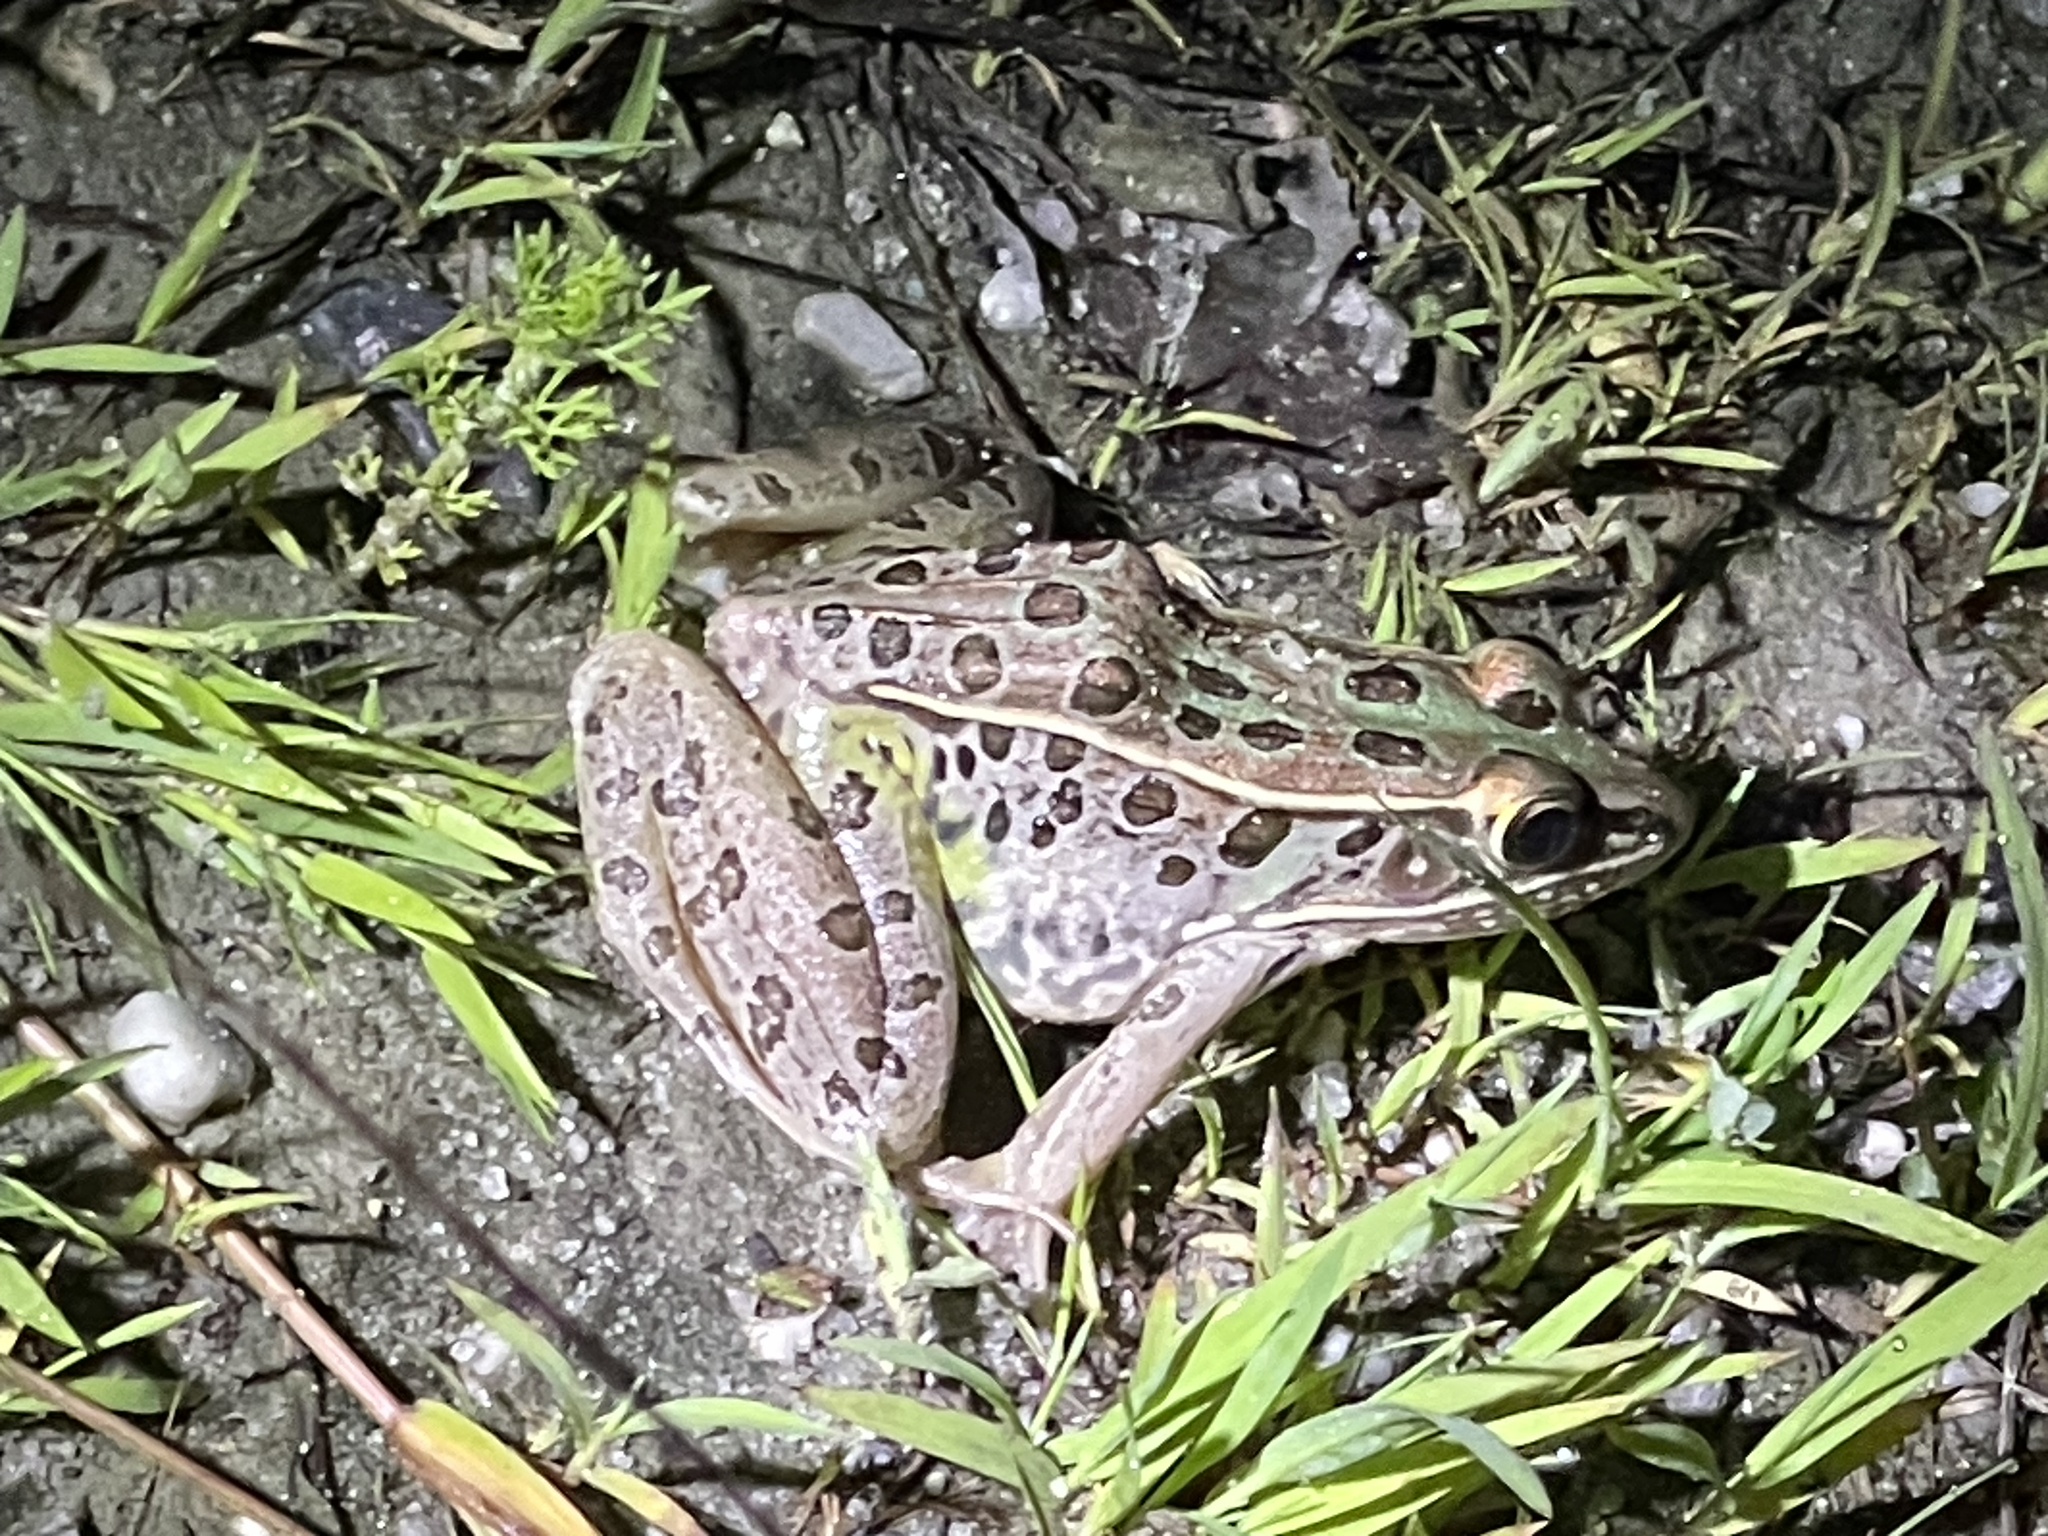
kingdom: Animalia
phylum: Chordata
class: Amphibia
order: Anura
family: Ranidae
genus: Lithobates
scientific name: Lithobates sphenocephalus
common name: Southern leopard frog
